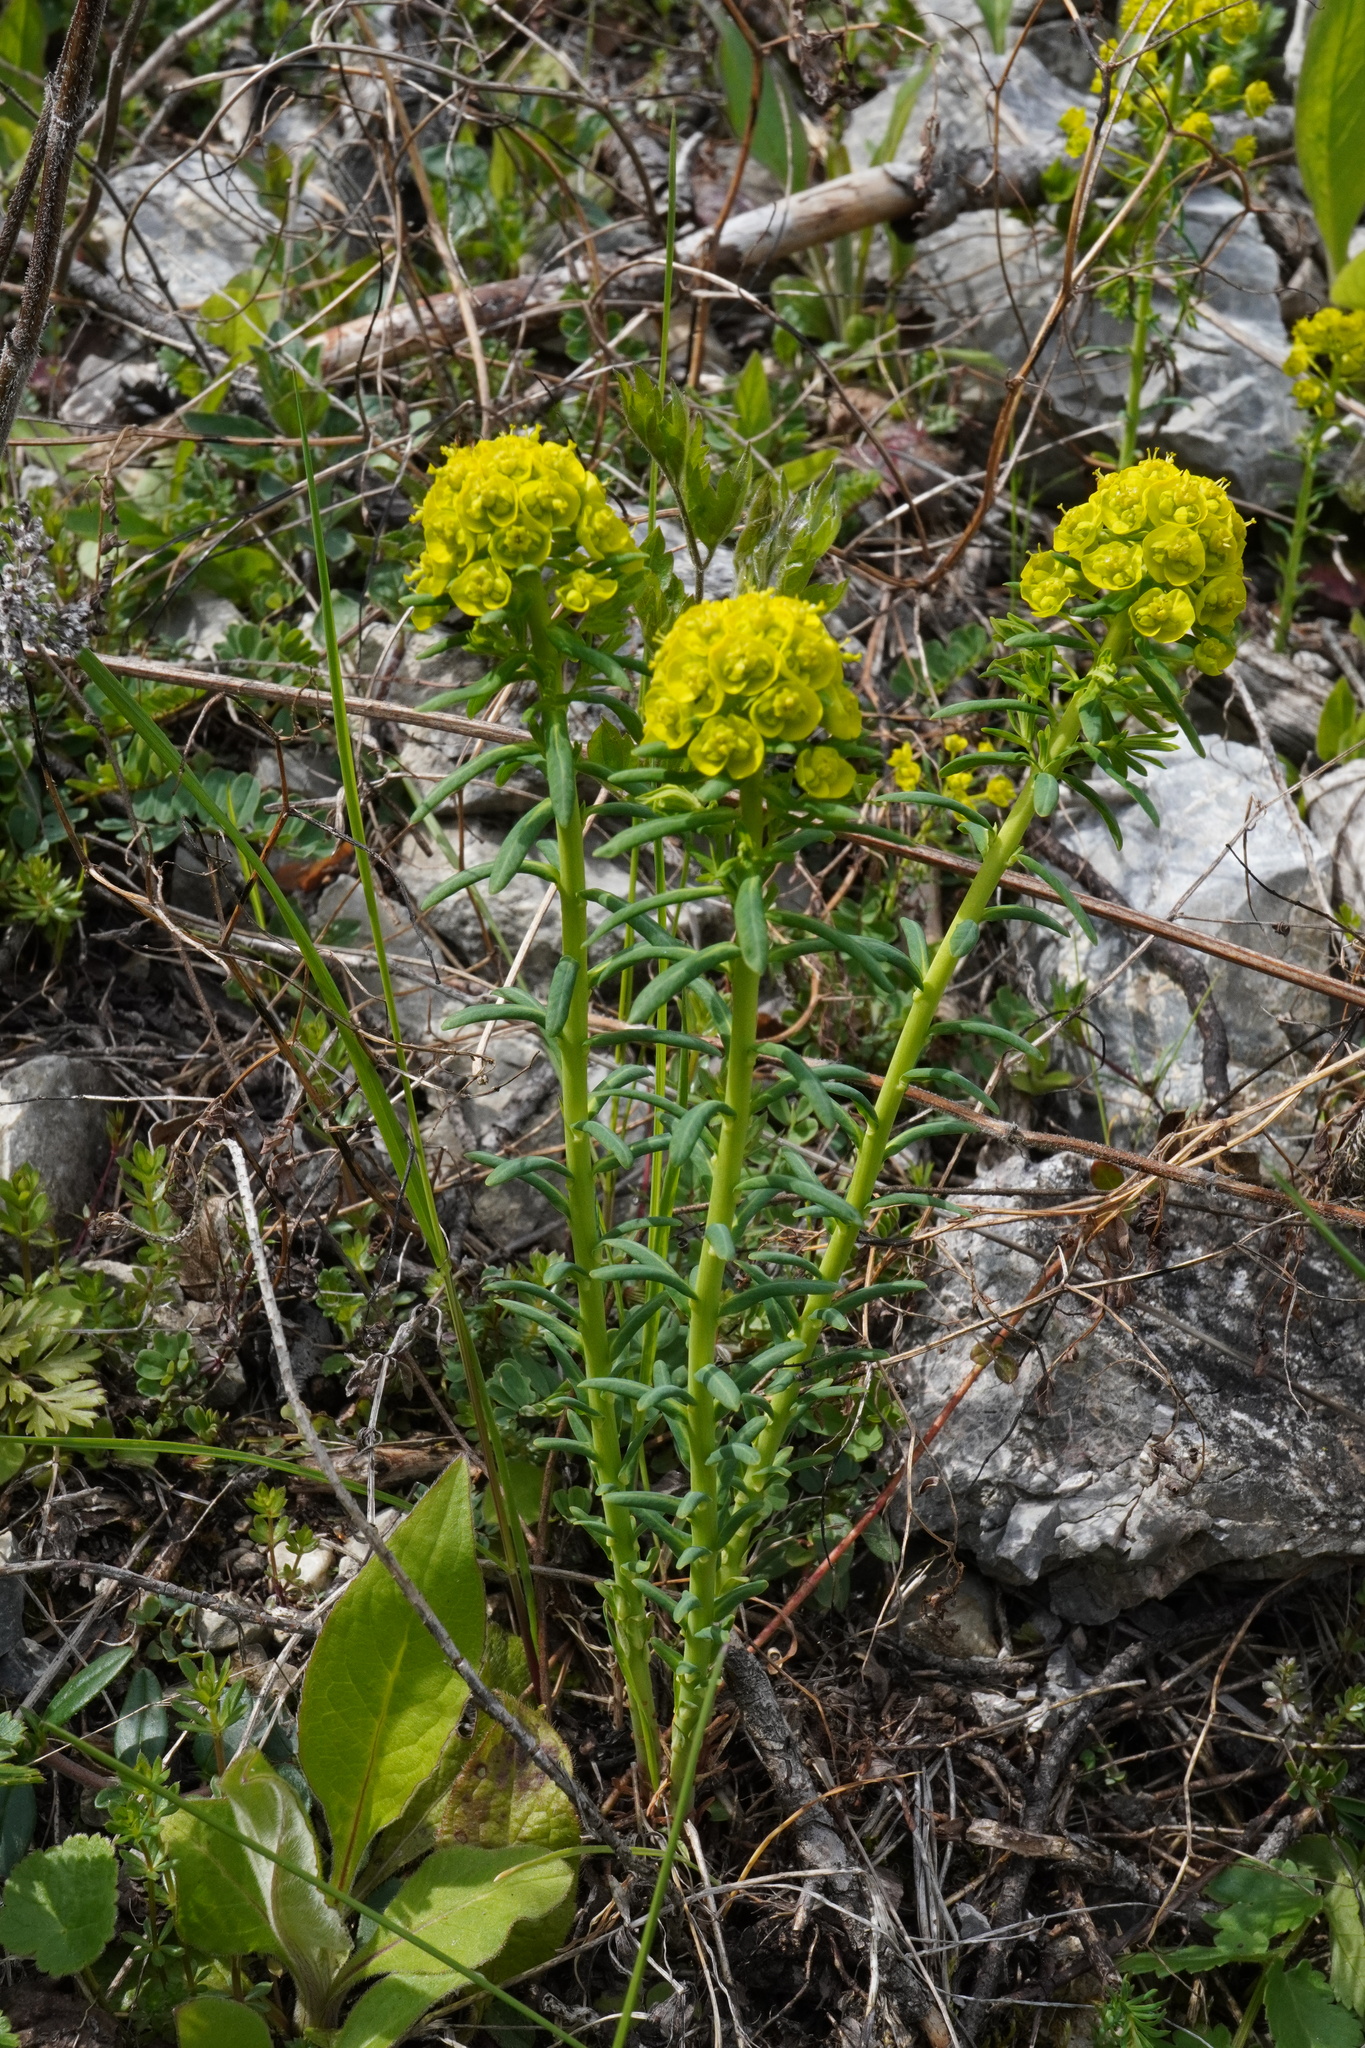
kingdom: Plantae
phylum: Tracheophyta
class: Magnoliopsida
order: Malpighiales
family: Euphorbiaceae
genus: Euphorbia
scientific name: Euphorbia cyparissias
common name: Cypress spurge
